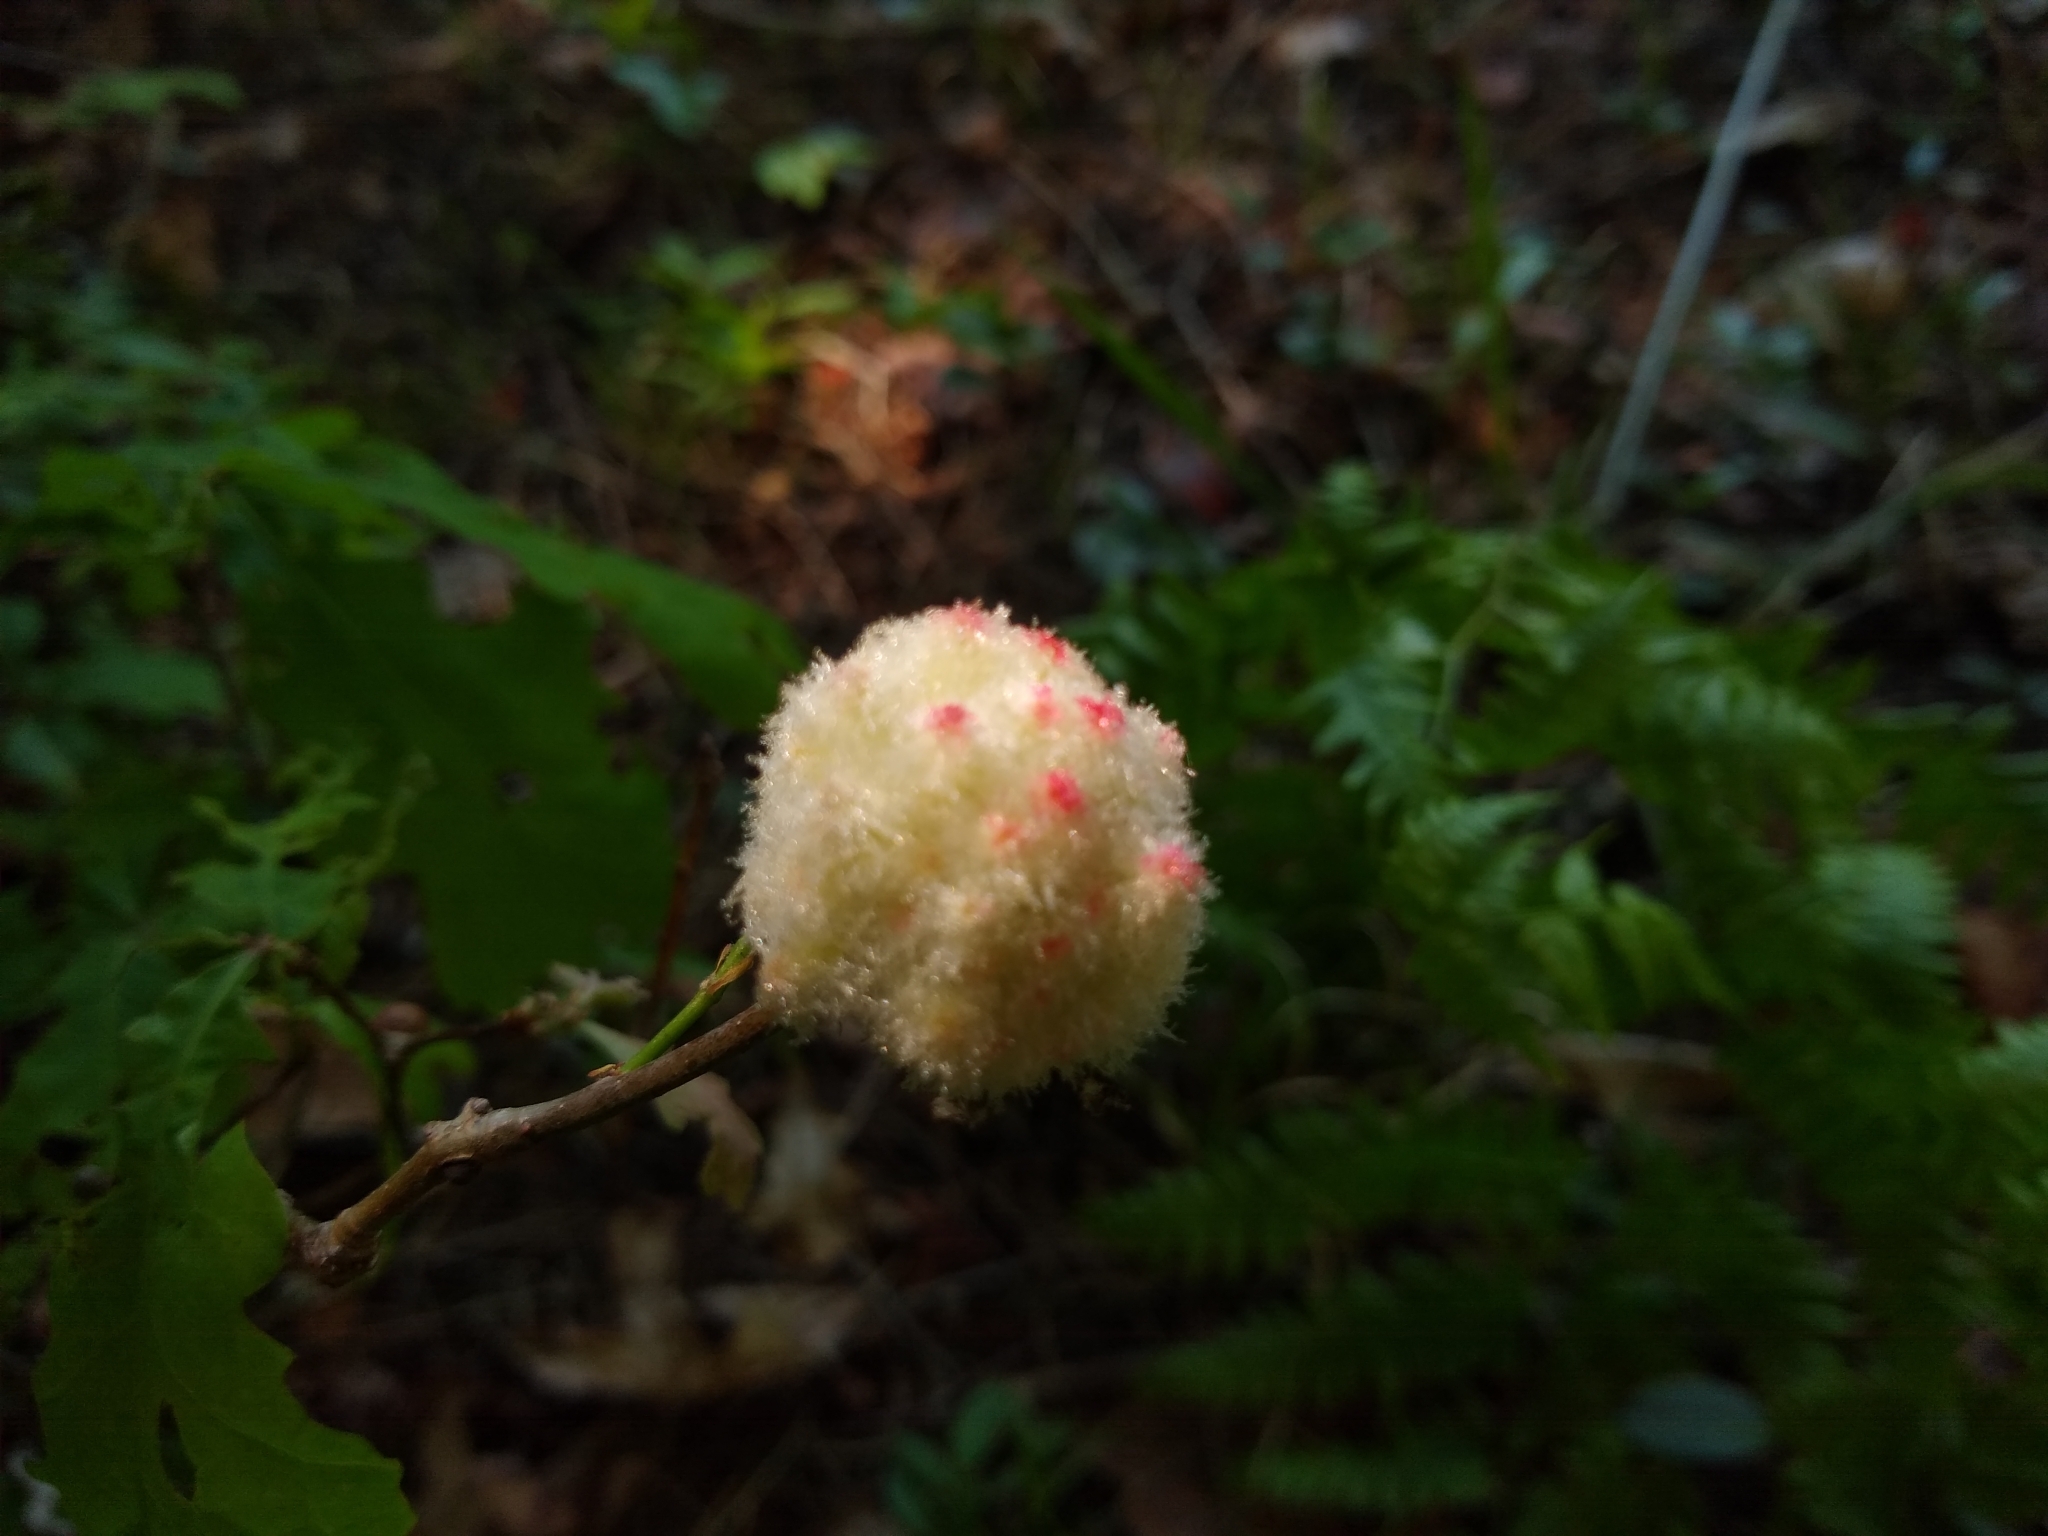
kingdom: Animalia
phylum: Arthropoda
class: Insecta
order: Hymenoptera
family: Cynipidae
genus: Callirhytis
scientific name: Callirhytis
